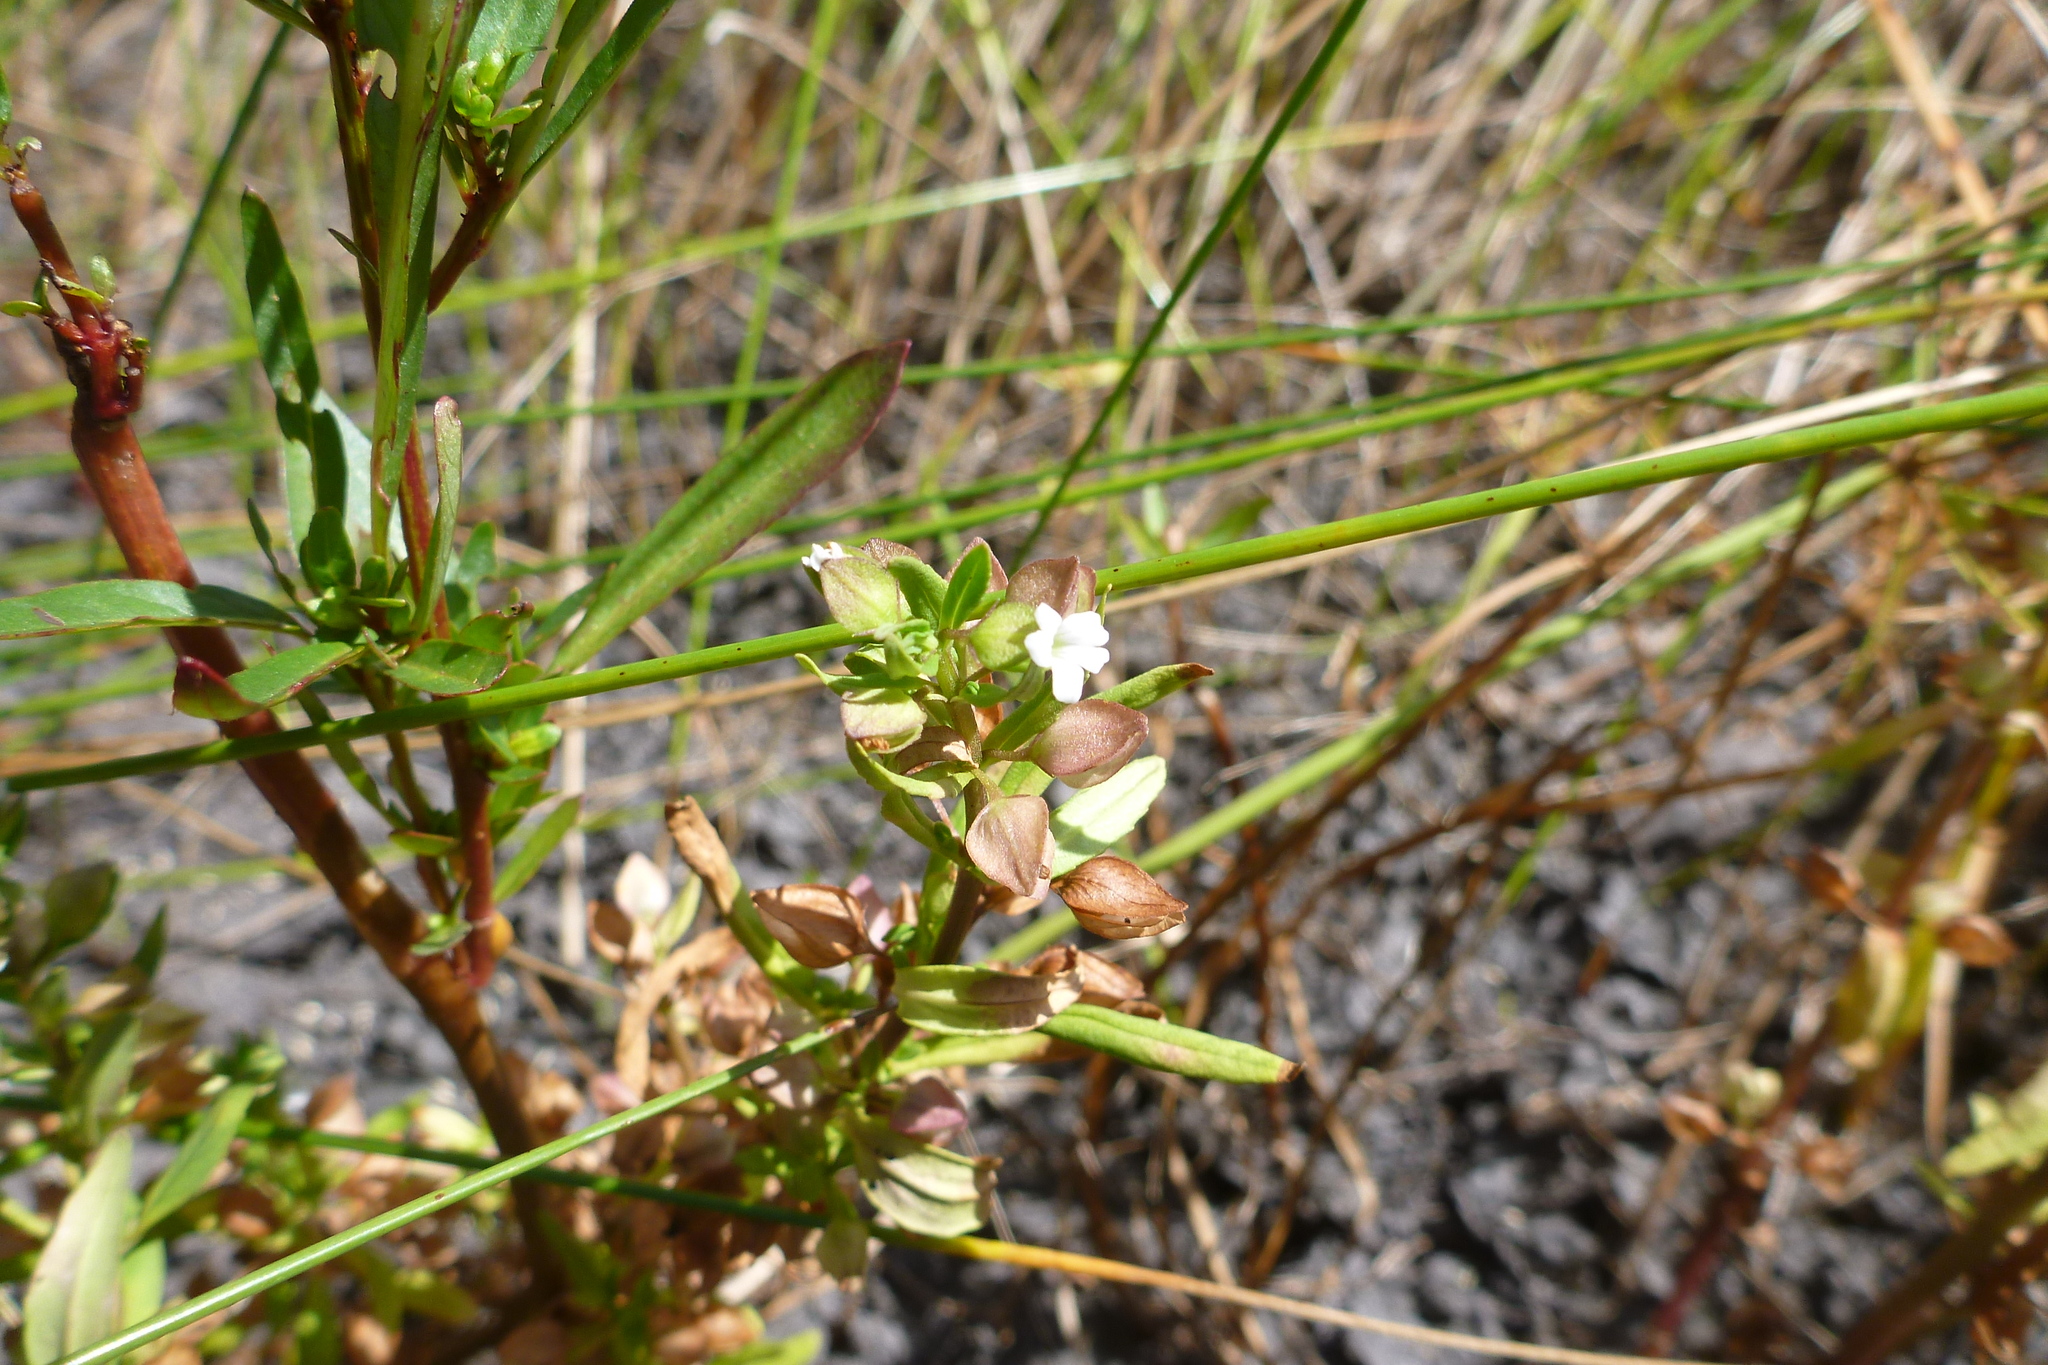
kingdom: Plantae
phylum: Tracheophyta
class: Magnoliopsida
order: Lamiales
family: Plantaginaceae
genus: Bacopa
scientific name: Bacopa floribunda
